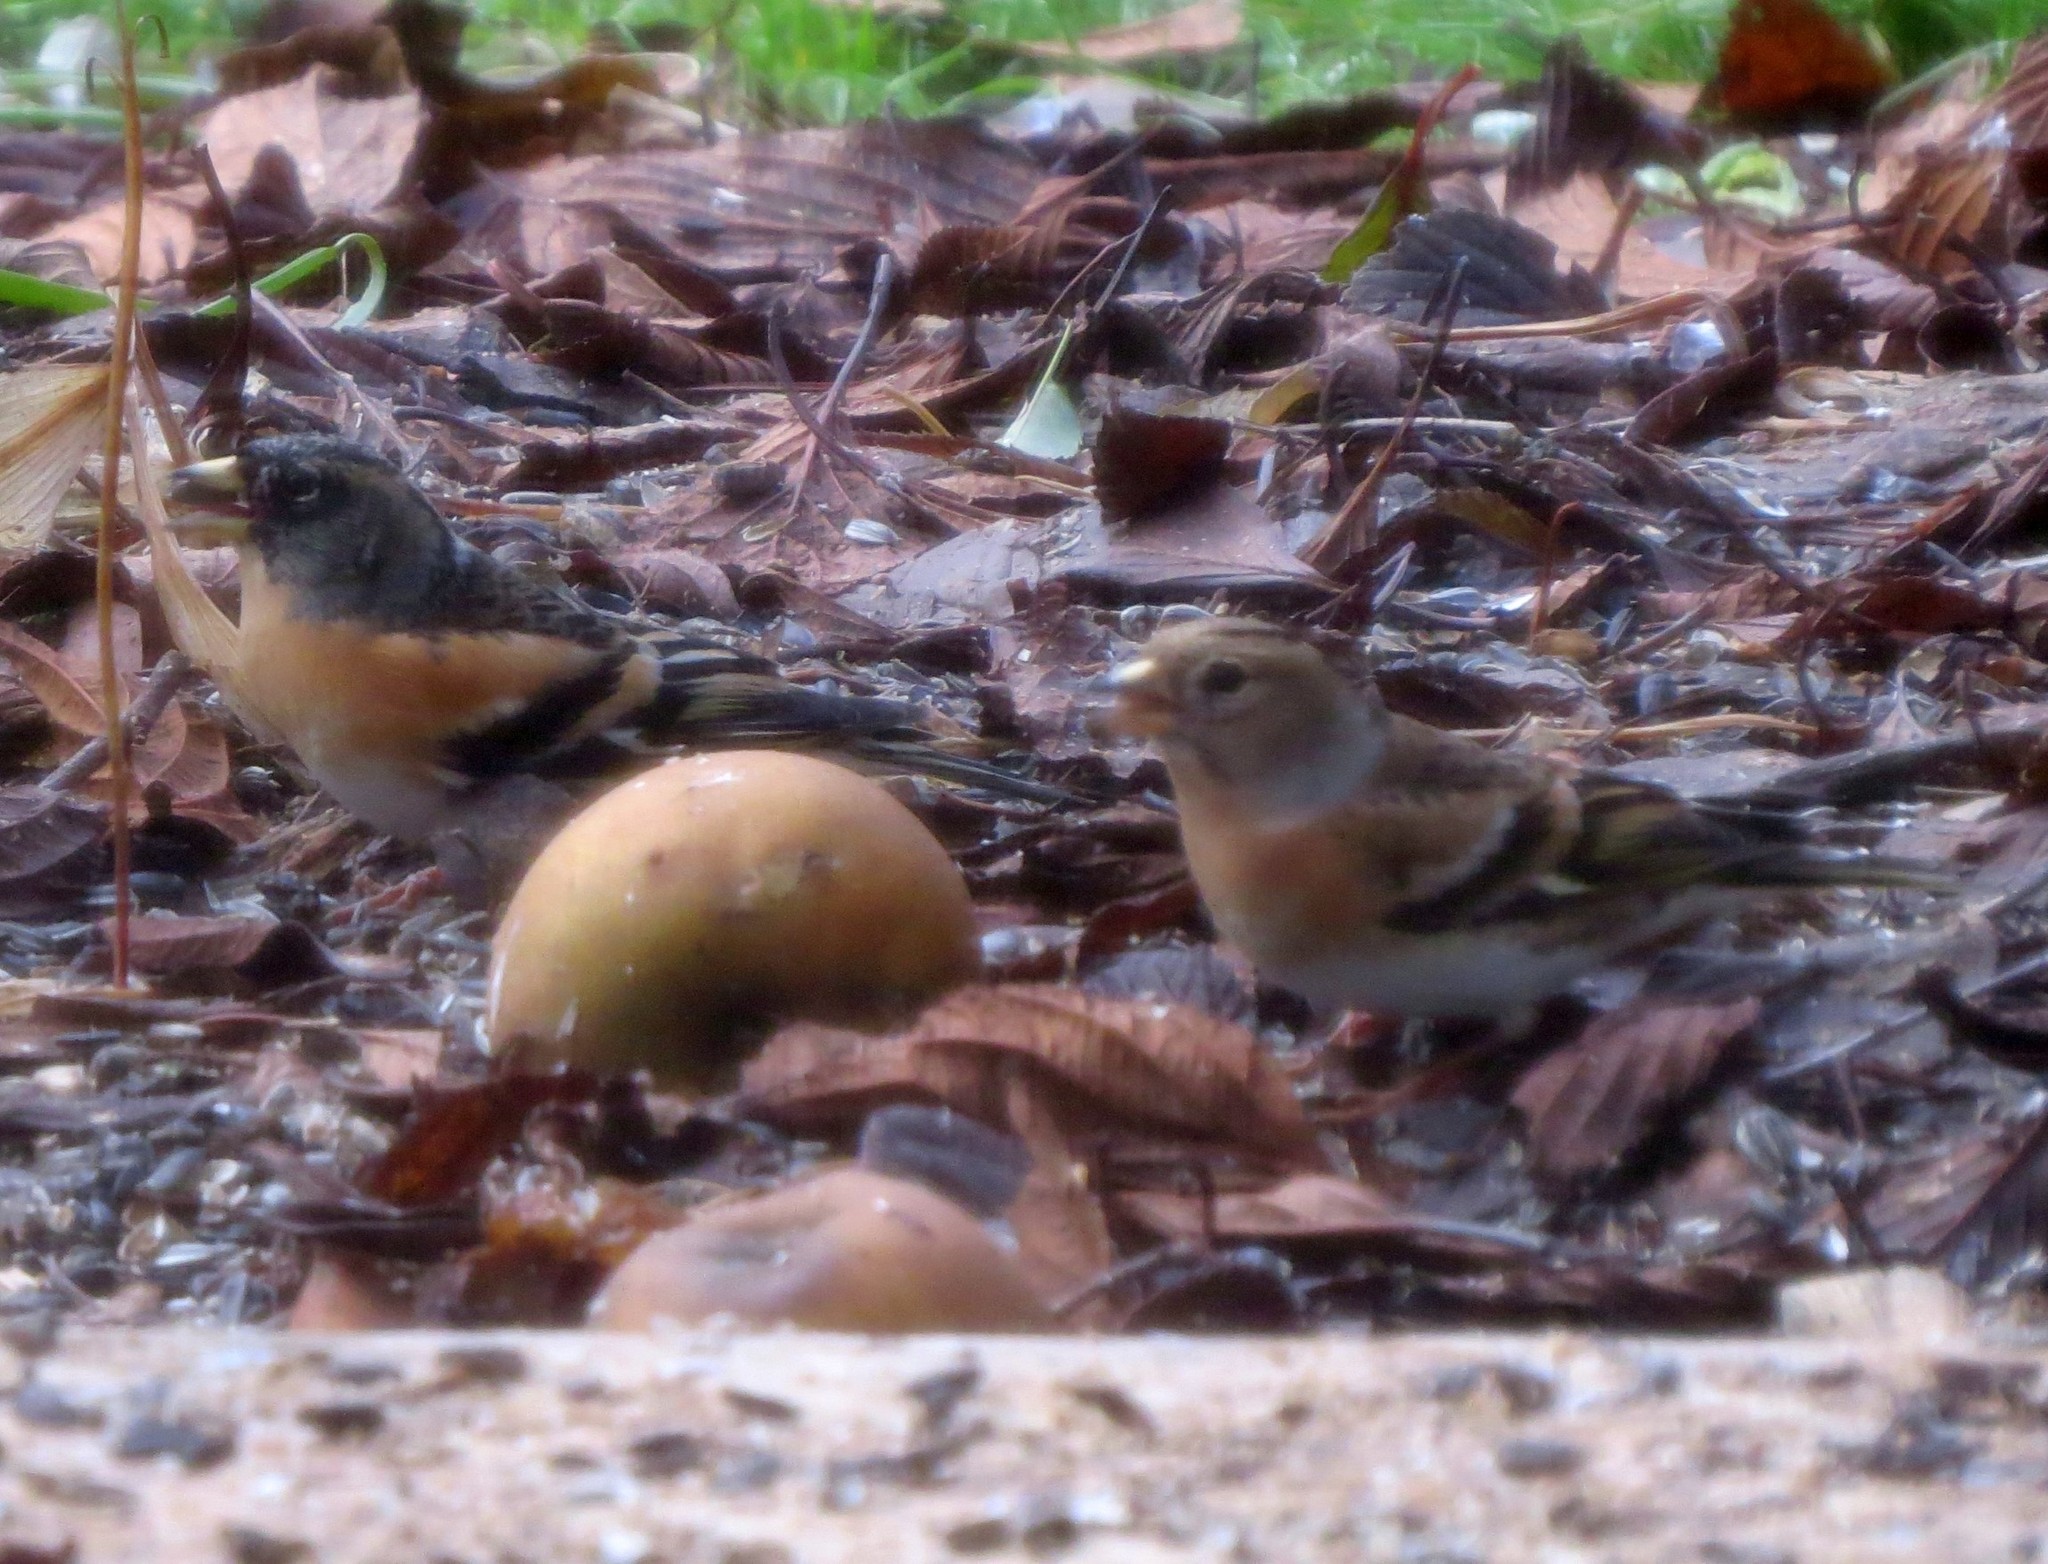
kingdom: Animalia
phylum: Chordata
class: Aves
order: Passeriformes
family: Fringillidae
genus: Fringilla
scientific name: Fringilla montifringilla
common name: Brambling
